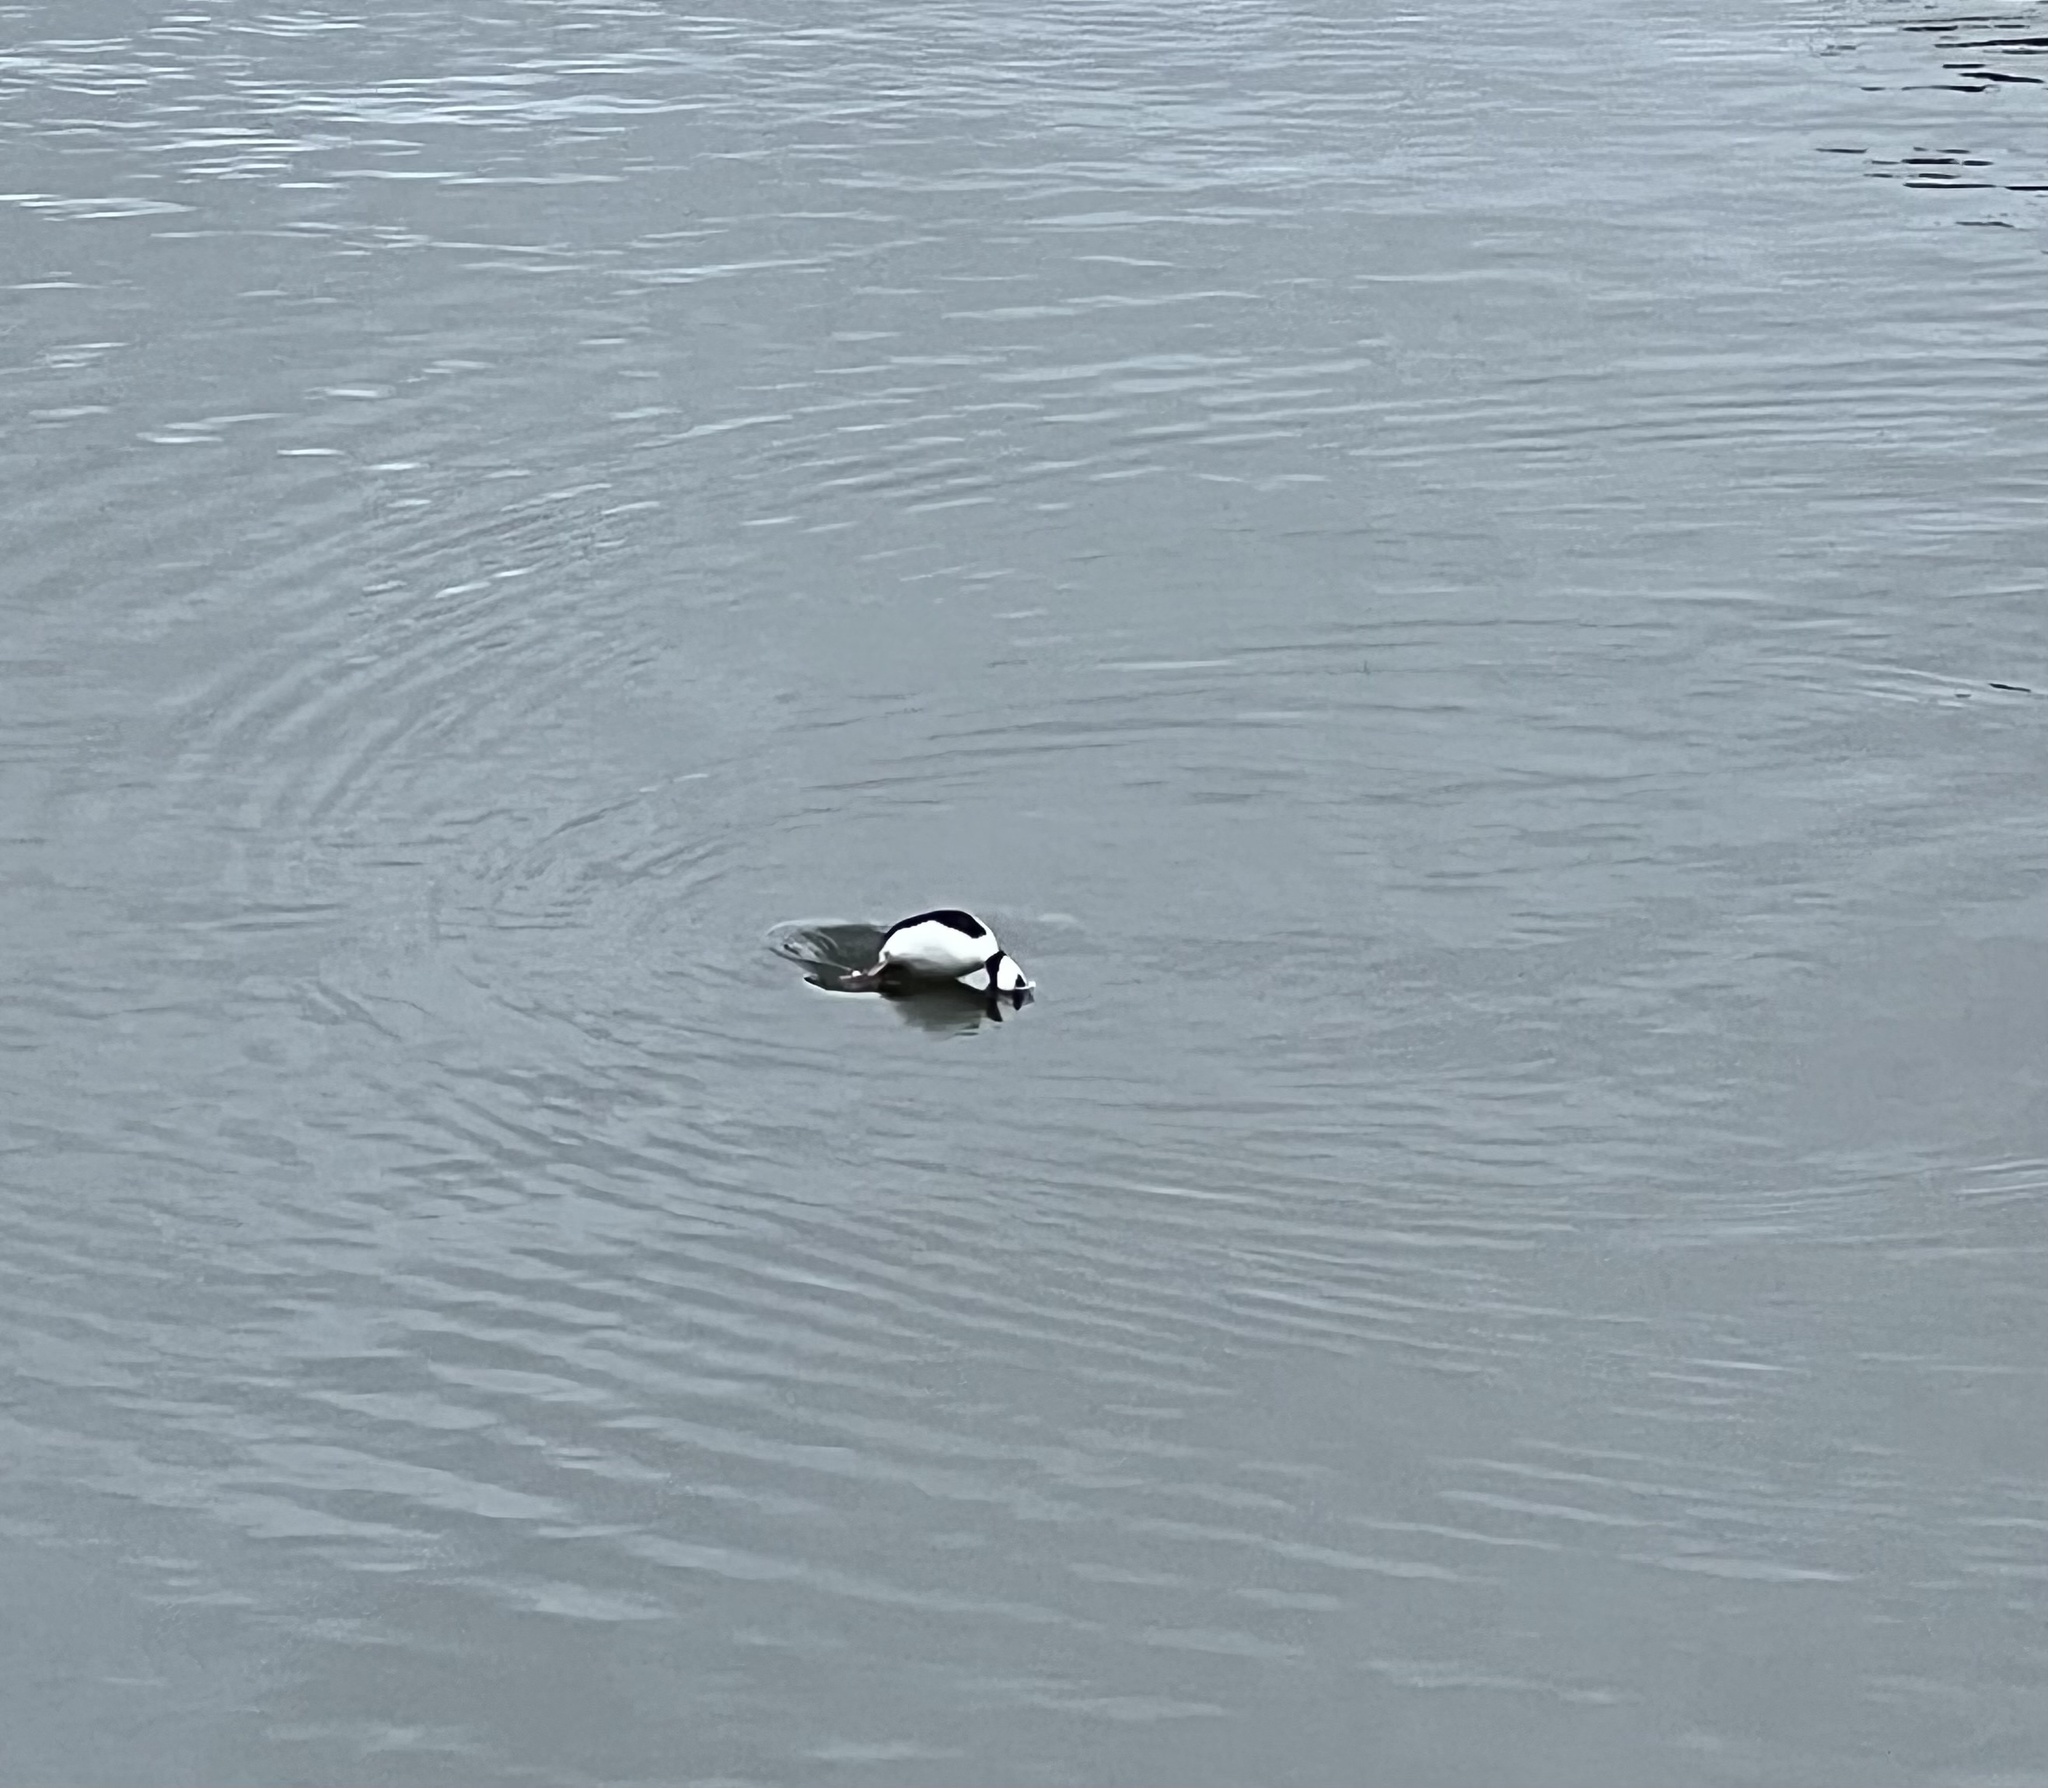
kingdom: Animalia
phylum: Chordata
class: Aves
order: Anseriformes
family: Anatidae
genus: Bucephala
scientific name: Bucephala albeola
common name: Bufflehead
